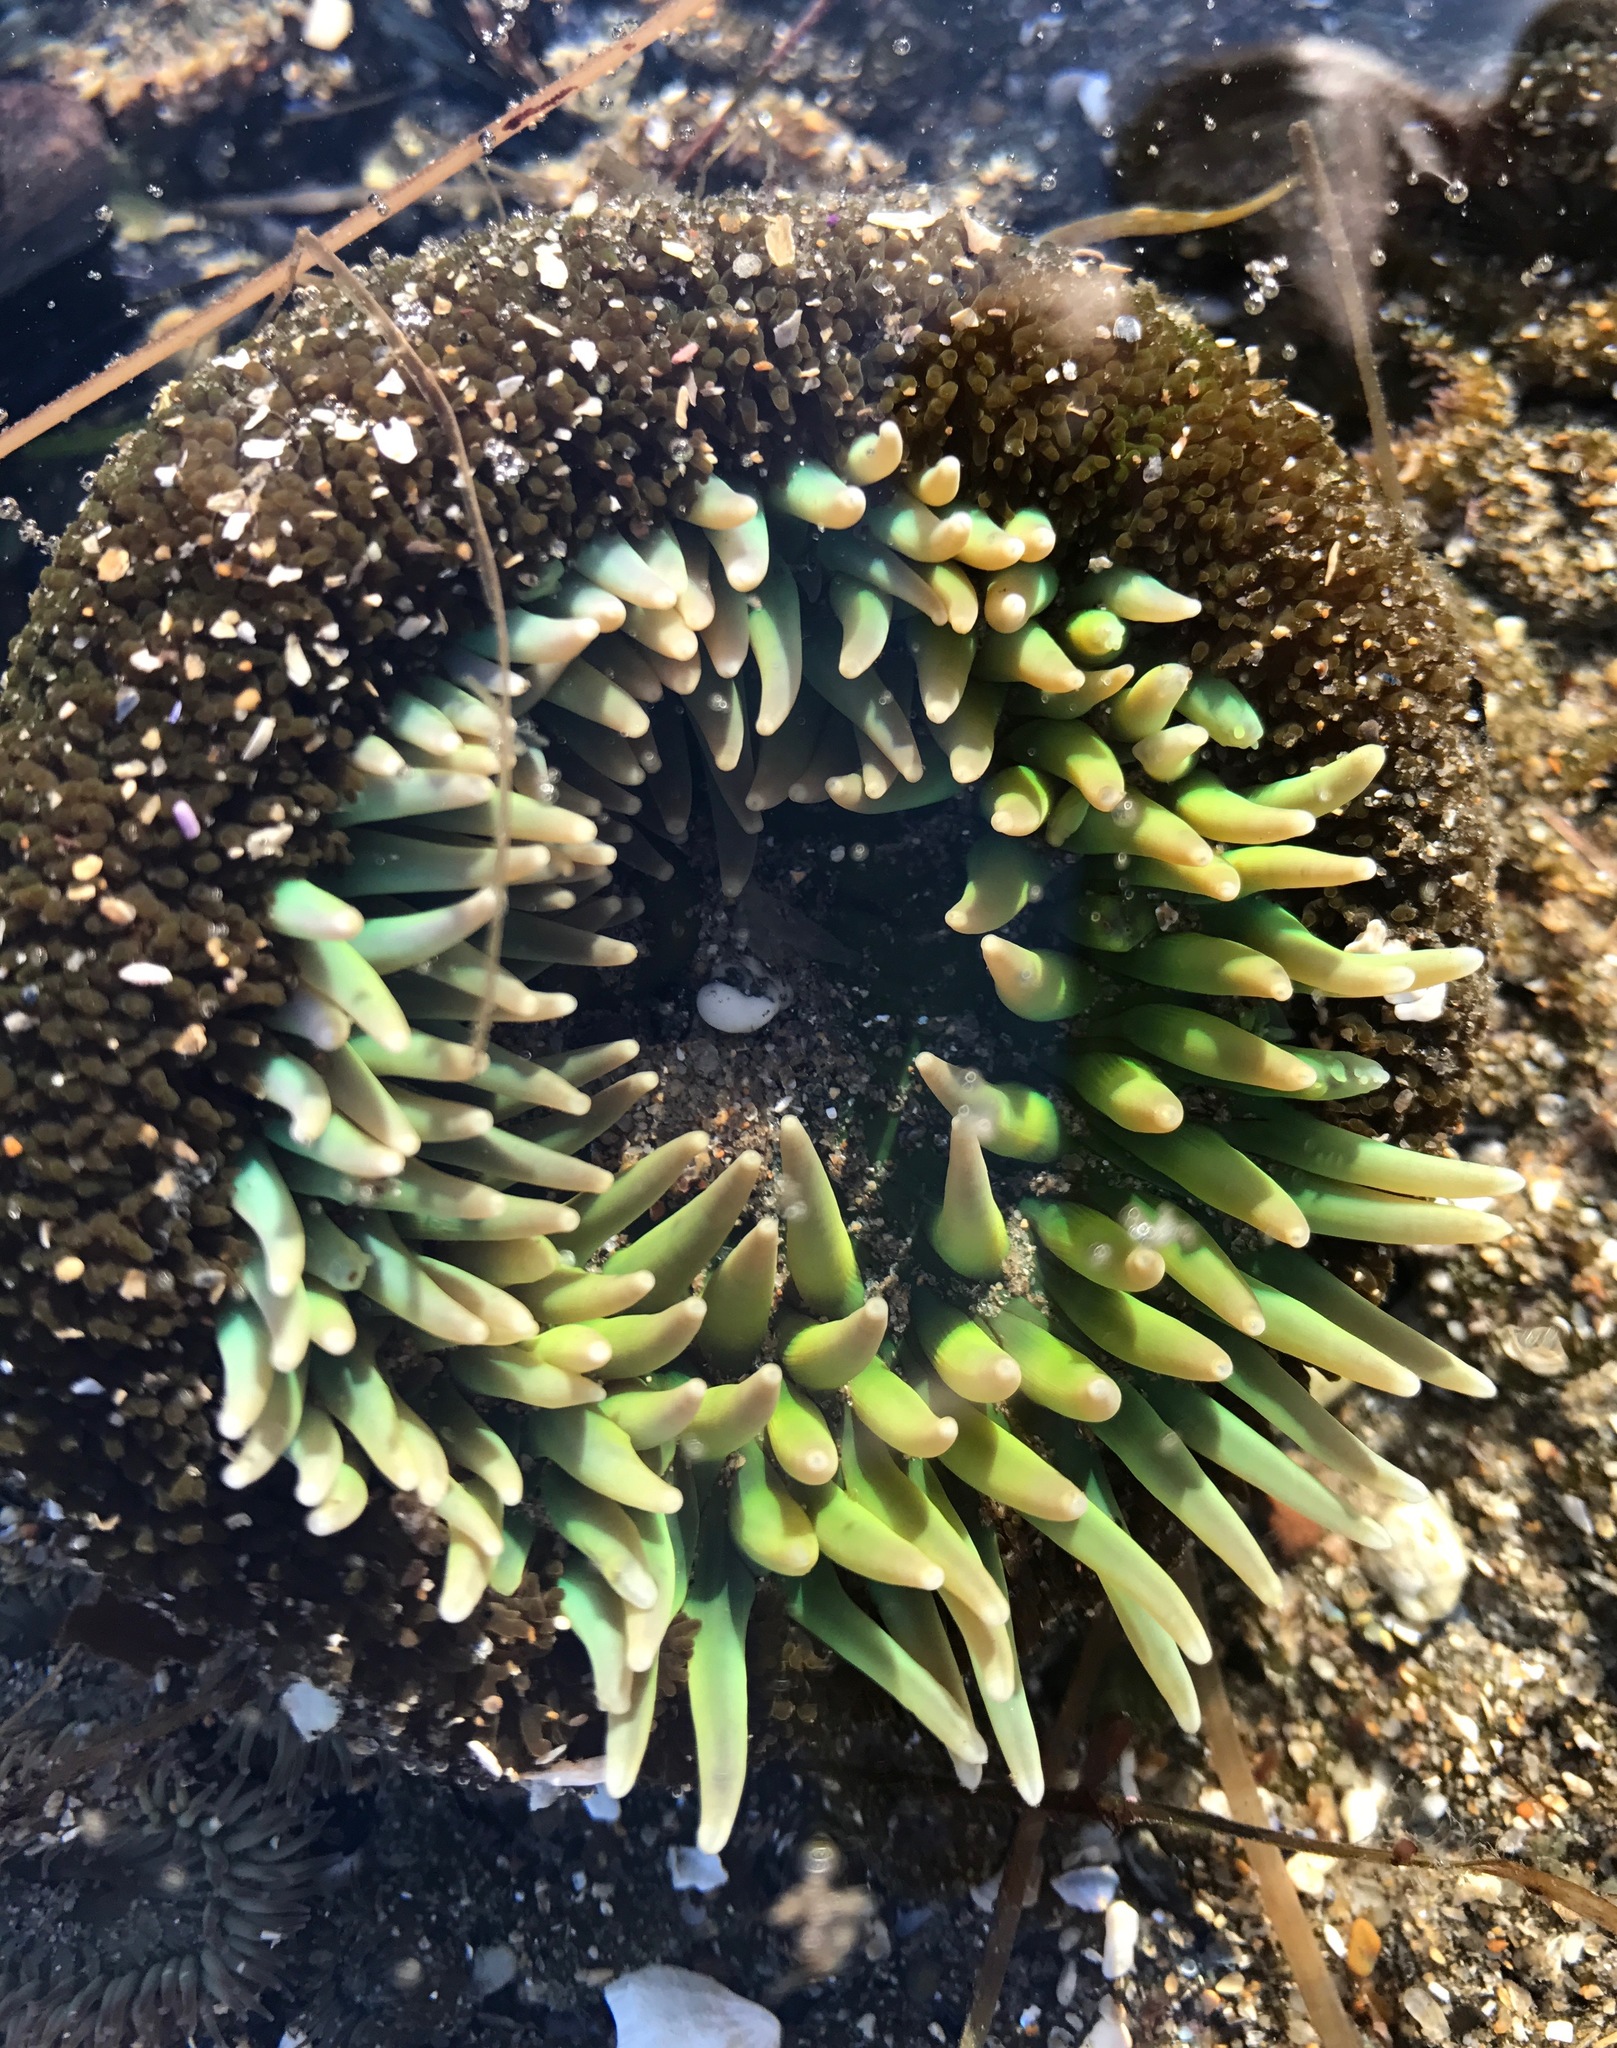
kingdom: Animalia
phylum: Cnidaria
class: Anthozoa
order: Actiniaria
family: Actiniidae
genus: Anthopleura
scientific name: Anthopleura xanthogrammica
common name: Giant green anemone
